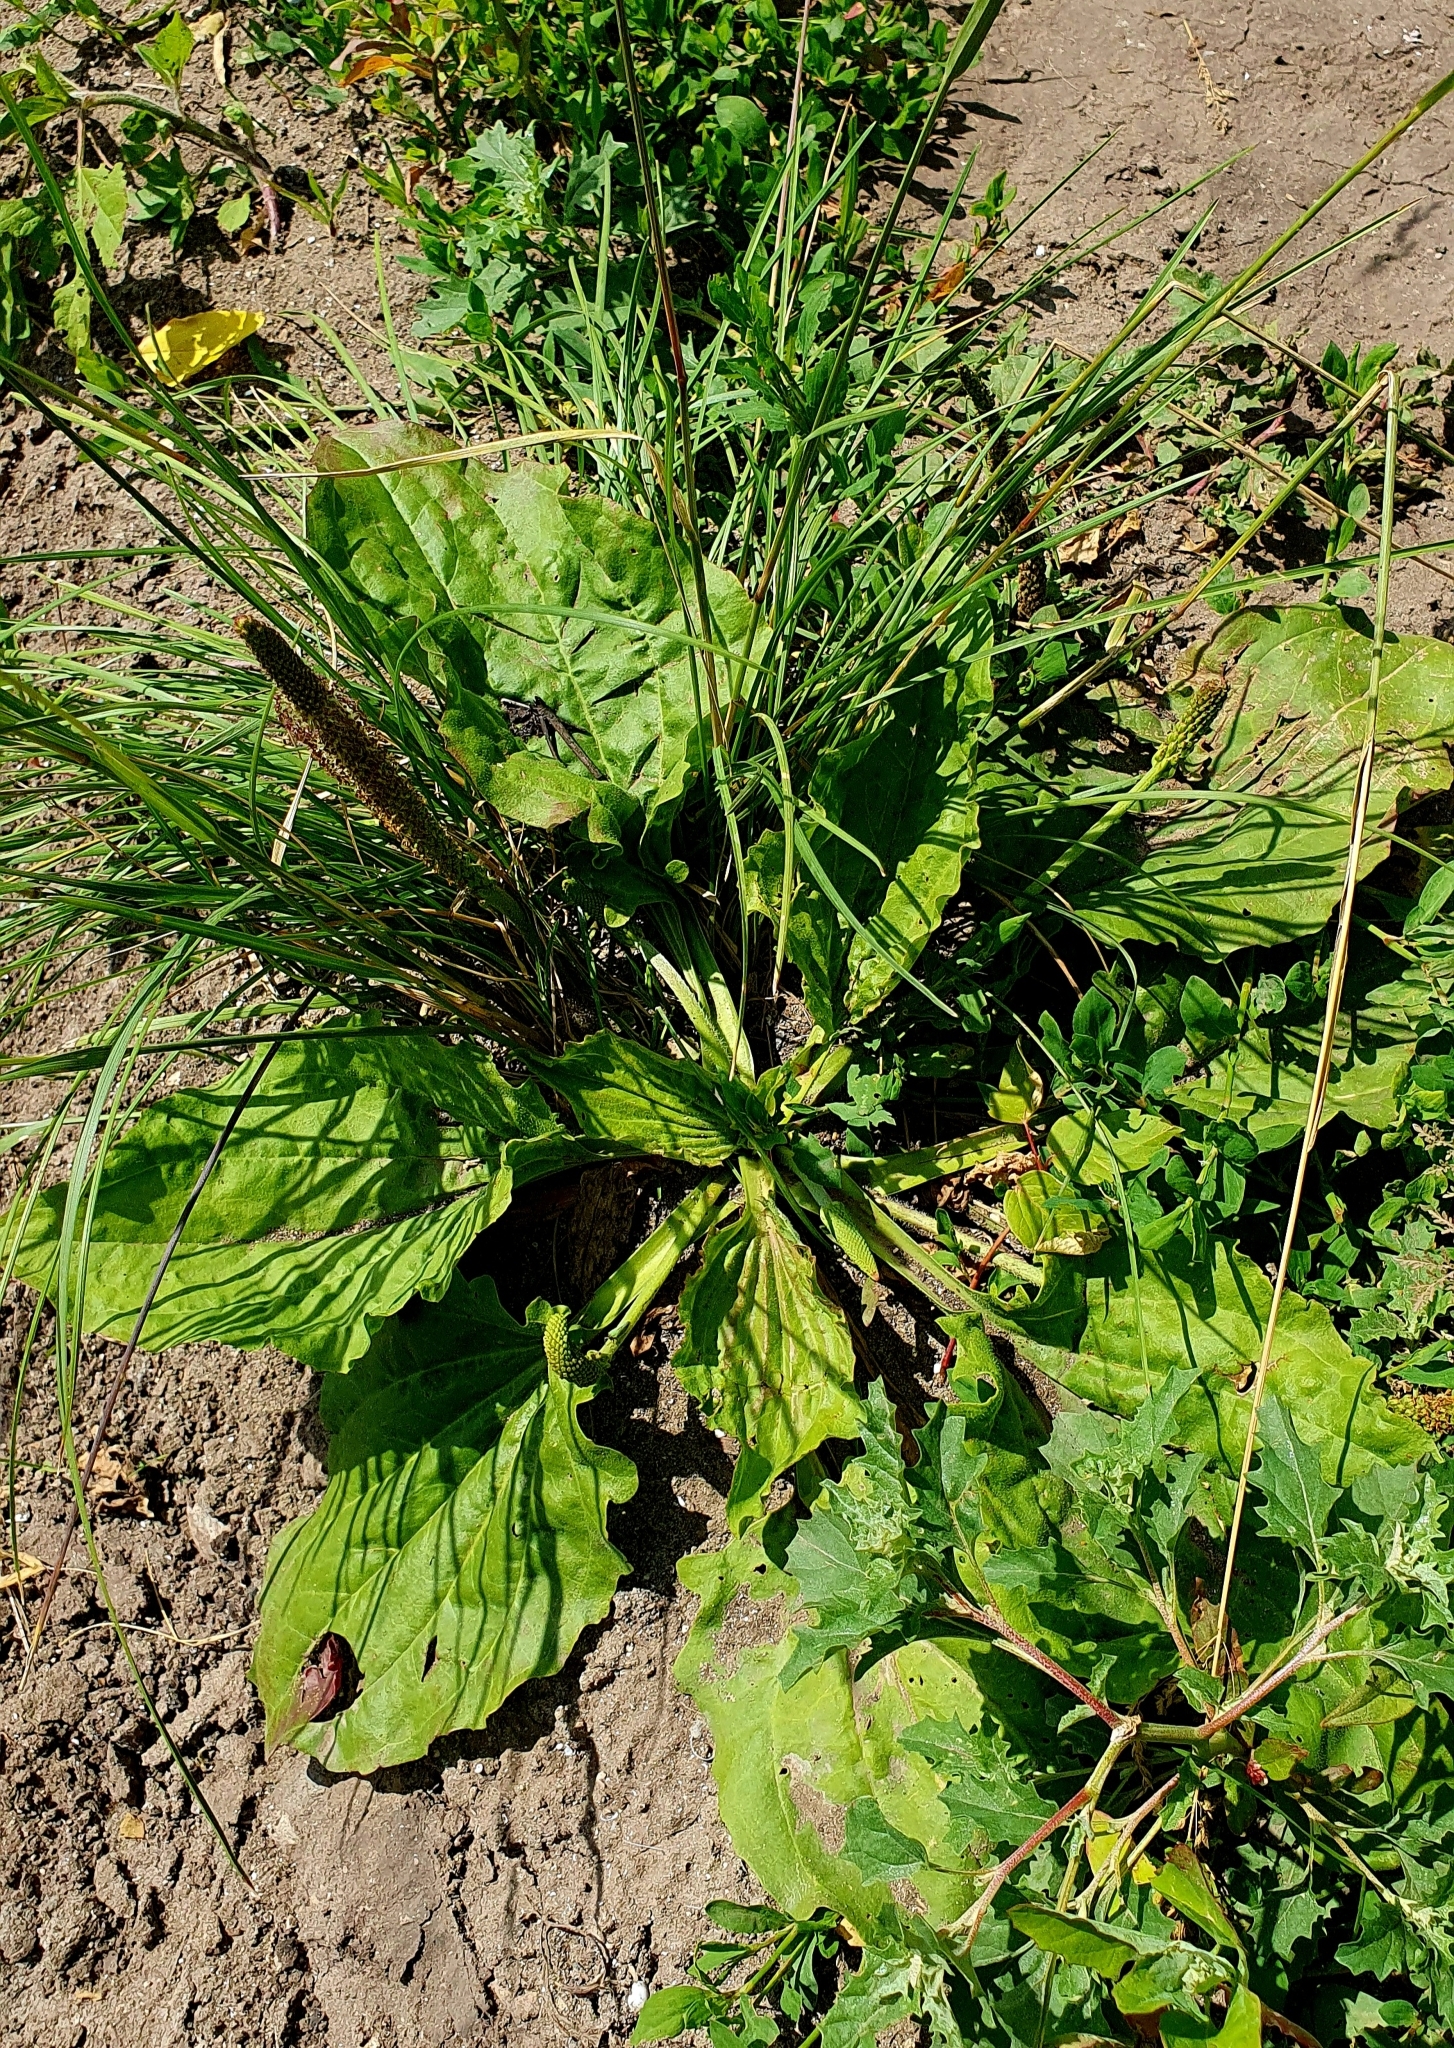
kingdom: Plantae
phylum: Tracheophyta
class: Magnoliopsida
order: Lamiales
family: Plantaginaceae
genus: Plantago
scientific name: Plantago major
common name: Common plantain
